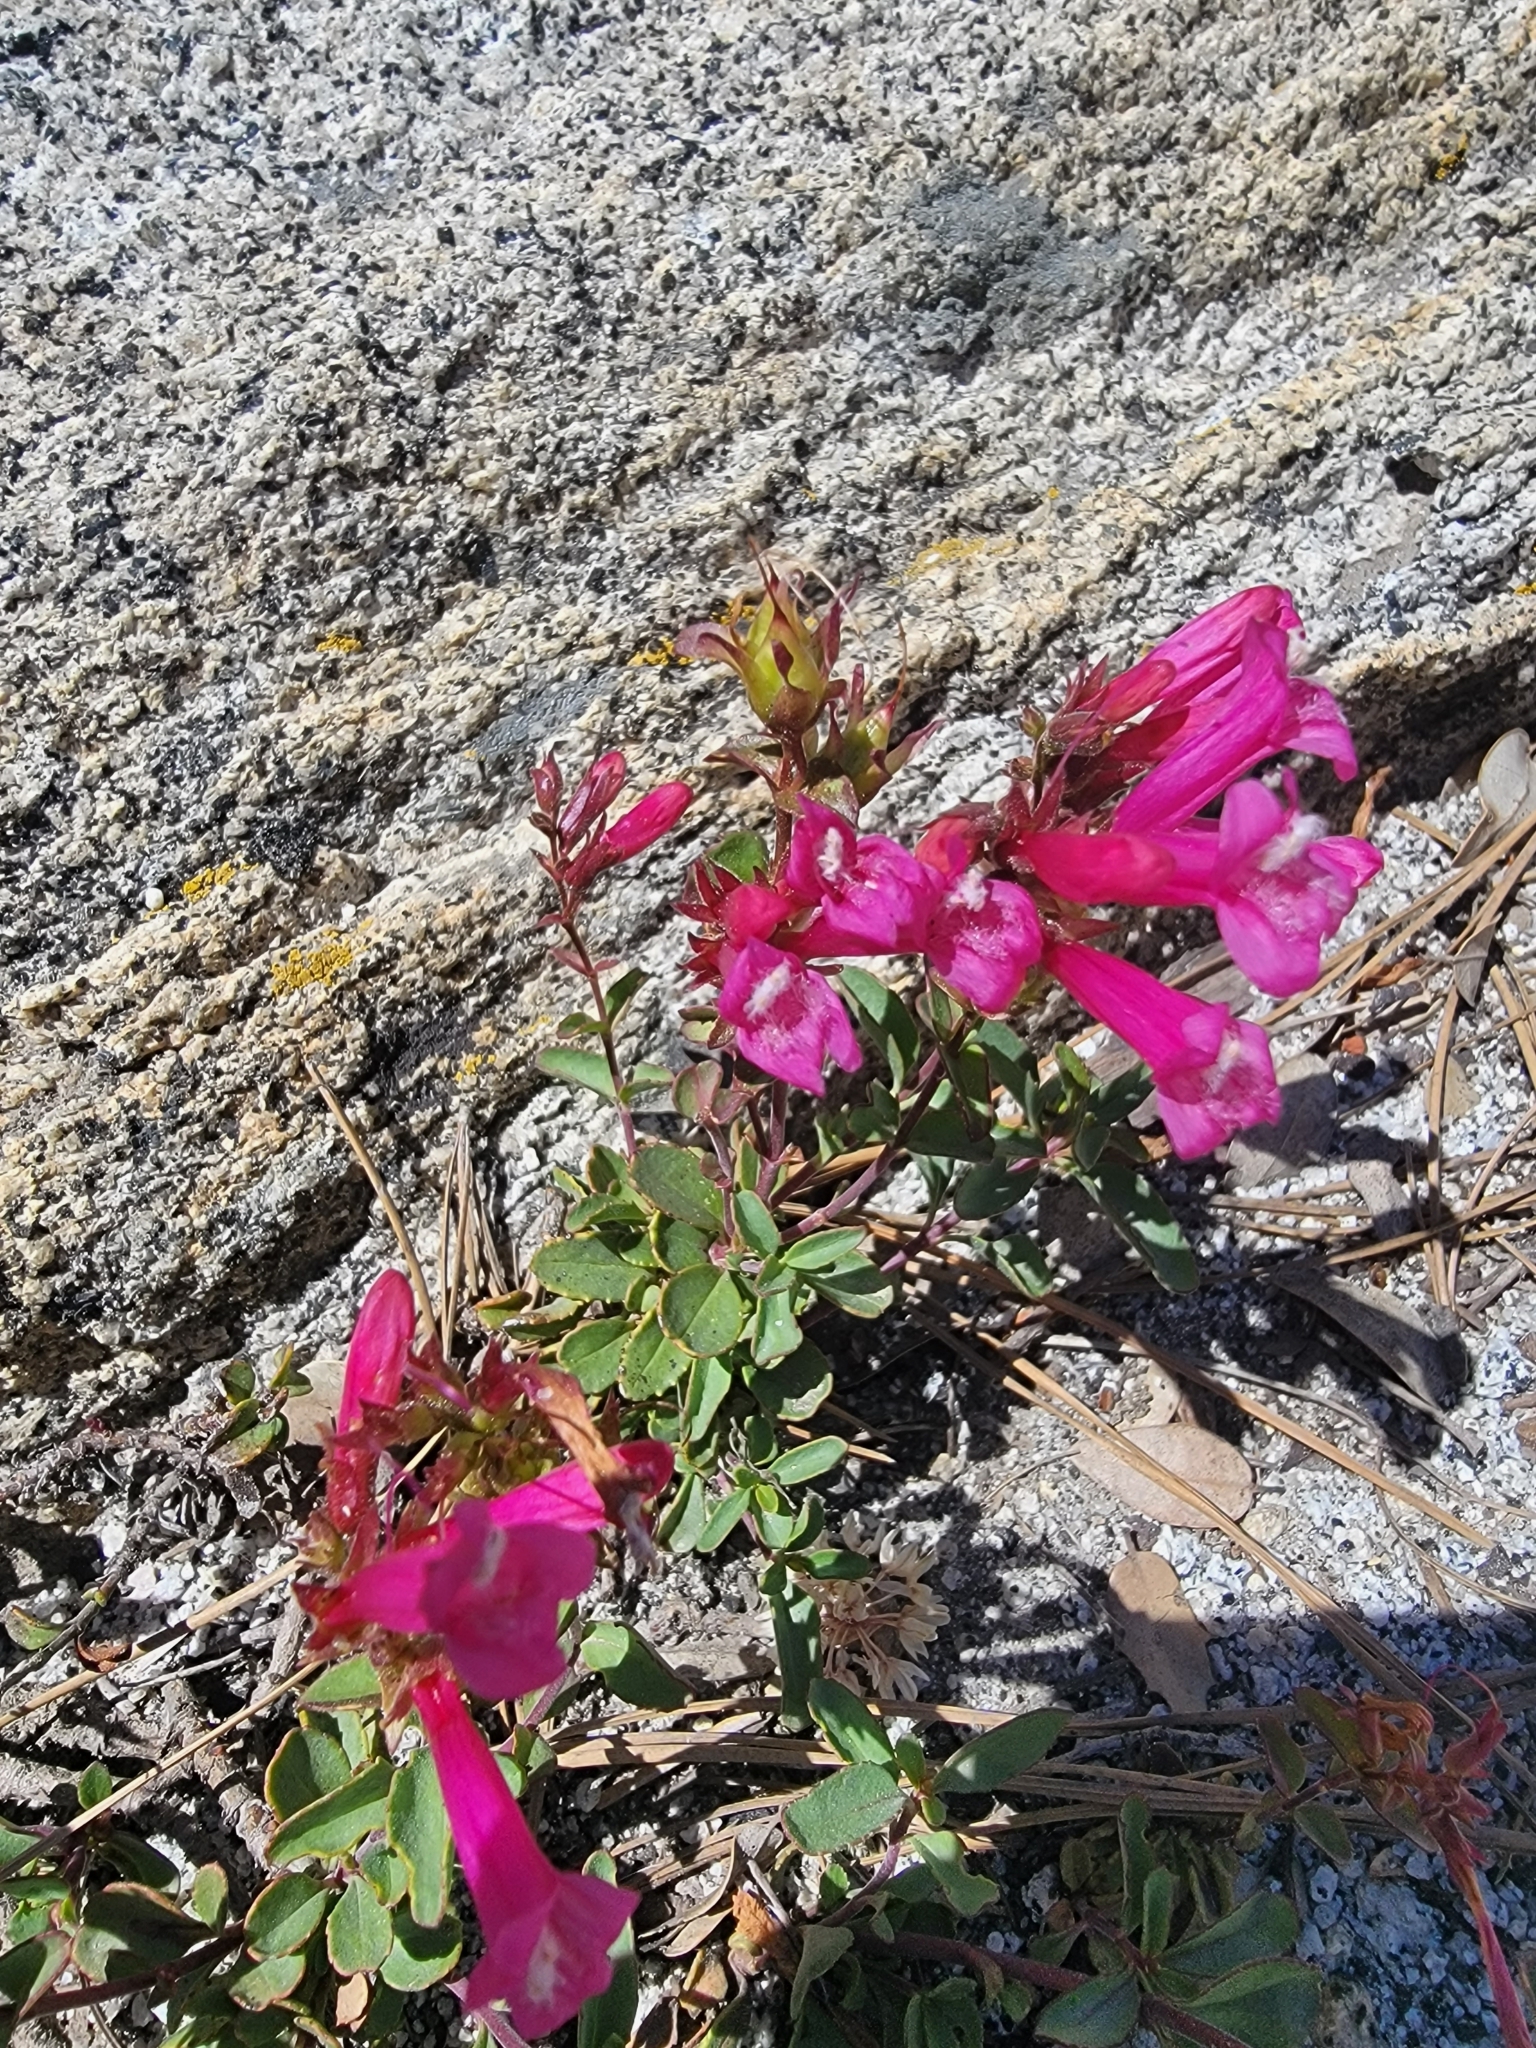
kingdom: Plantae
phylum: Tracheophyta
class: Magnoliopsida
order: Lamiales
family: Plantaginaceae
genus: Penstemon
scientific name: Penstemon newberryi
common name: Mountain-pride
